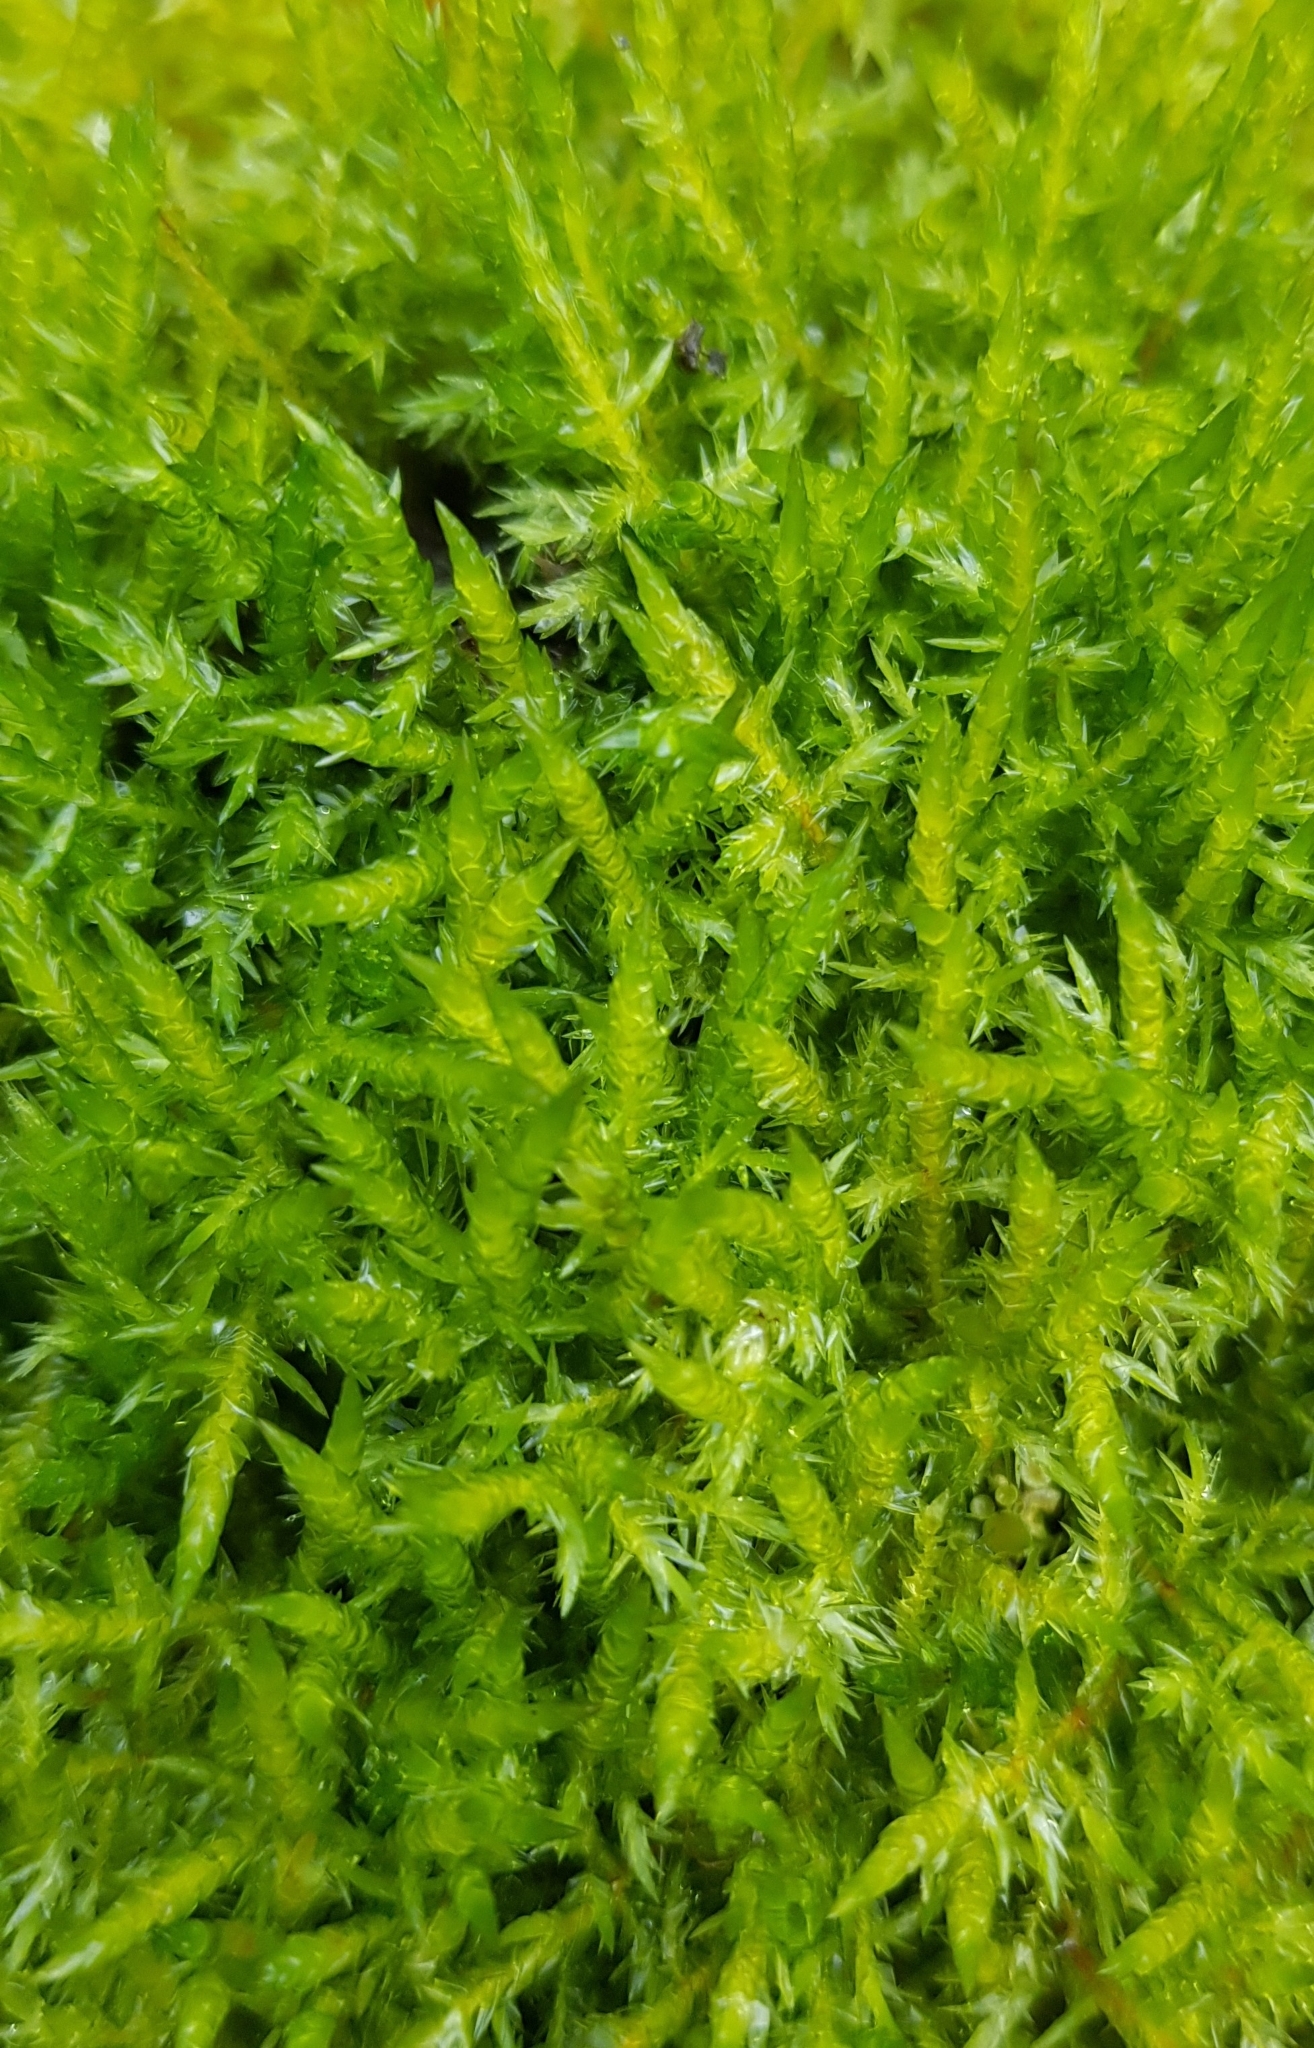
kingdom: Plantae
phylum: Bryophyta
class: Bryopsida
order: Hypnales
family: Pylaisiaceae
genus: Calliergonella
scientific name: Calliergonella cuspidata
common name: Common large wetland moss
